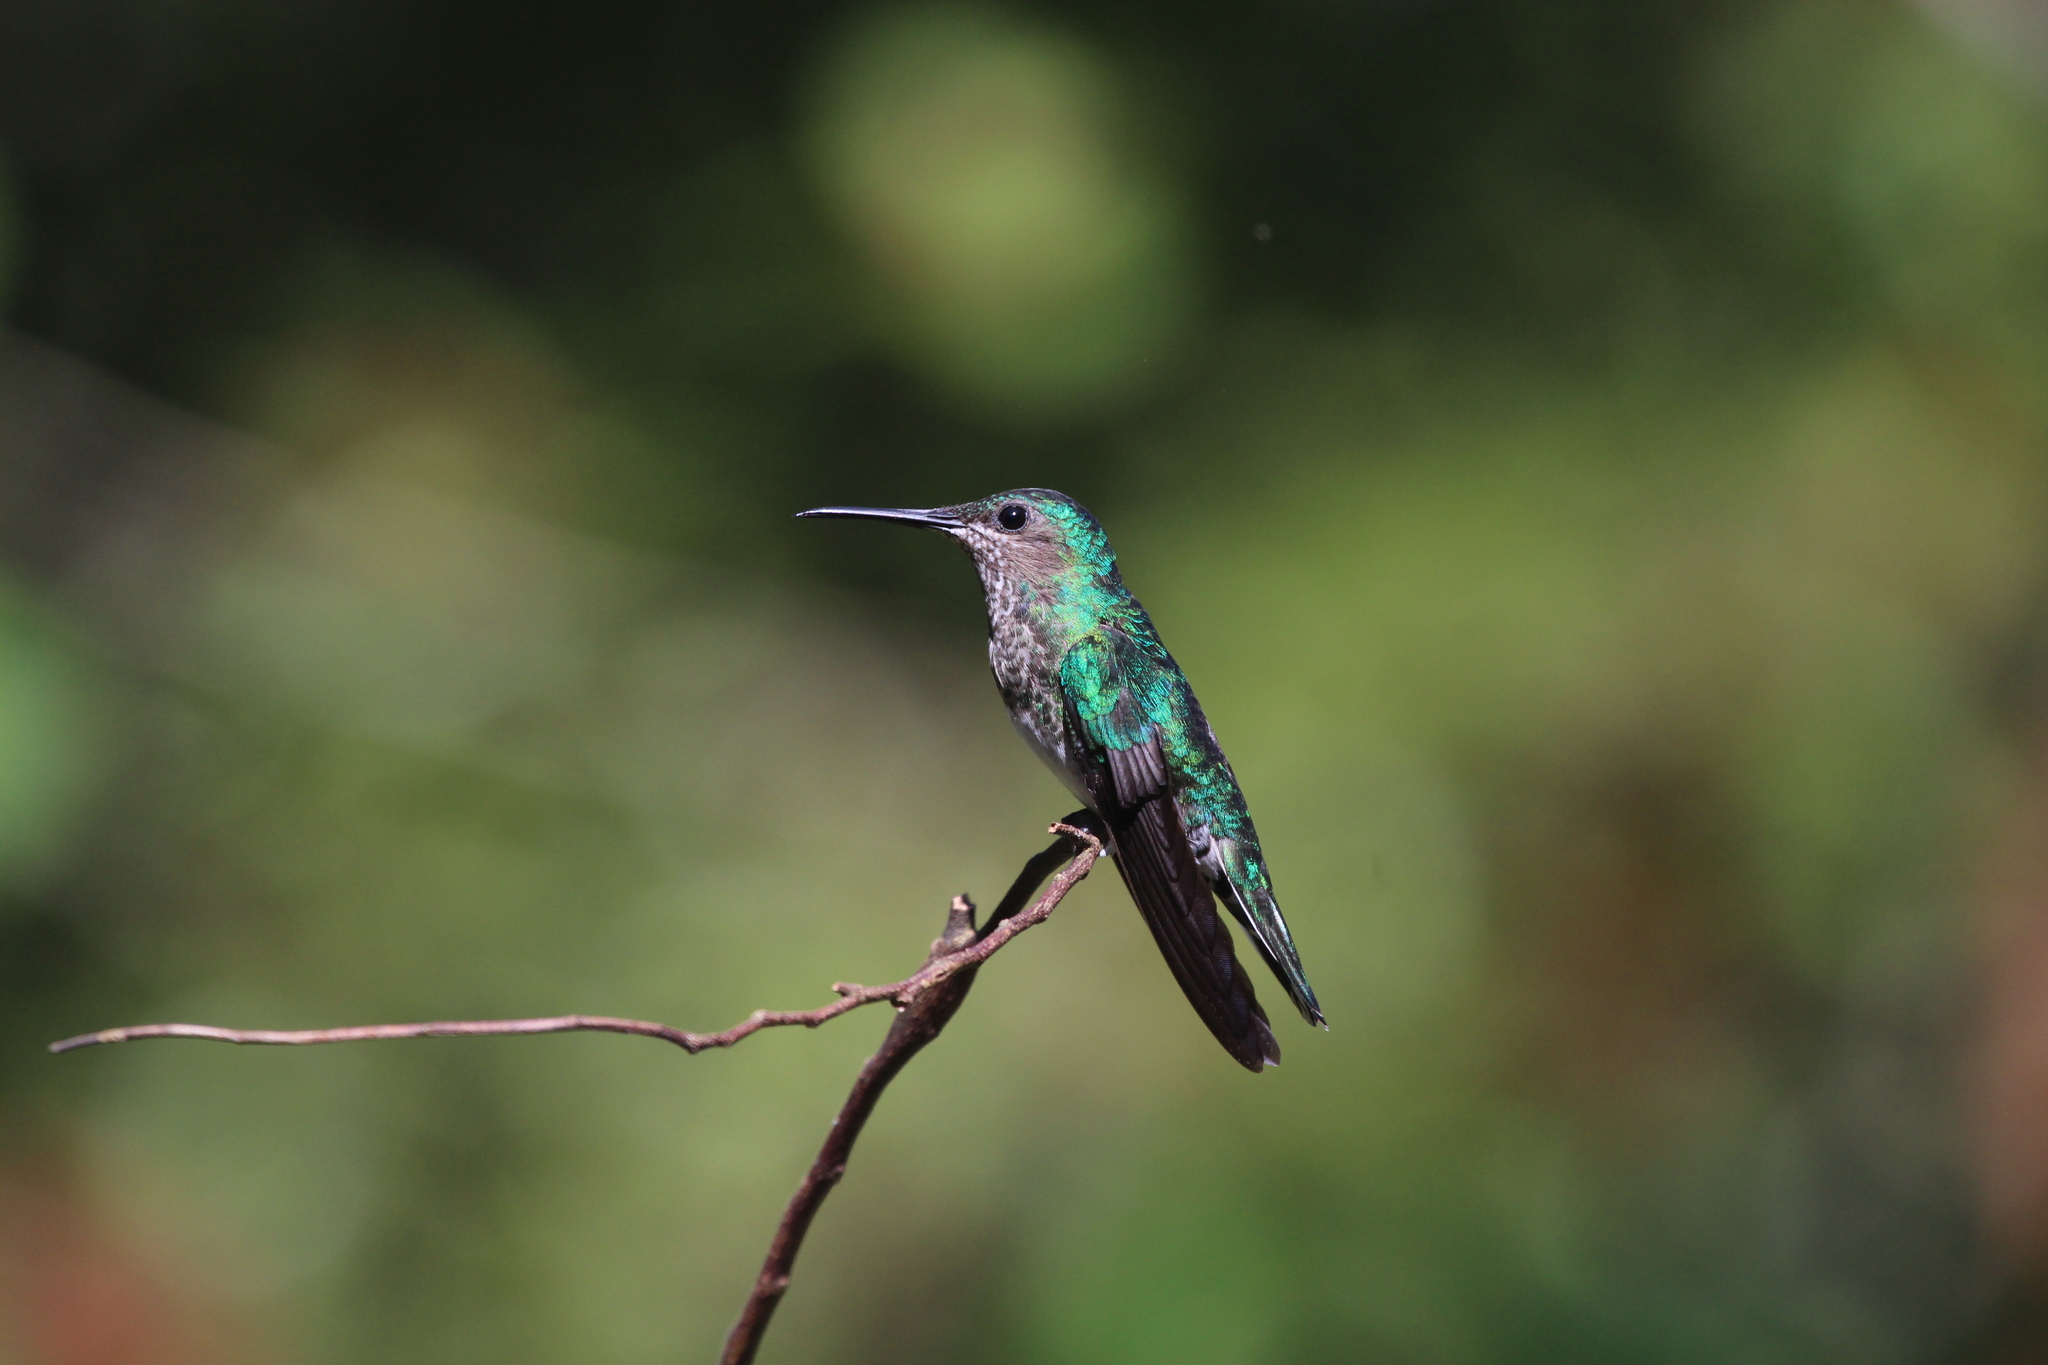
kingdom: Animalia
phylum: Chordata
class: Aves
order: Apodiformes
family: Trochilidae
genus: Florisuga
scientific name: Florisuga mellivora
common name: White-necked jacobin
